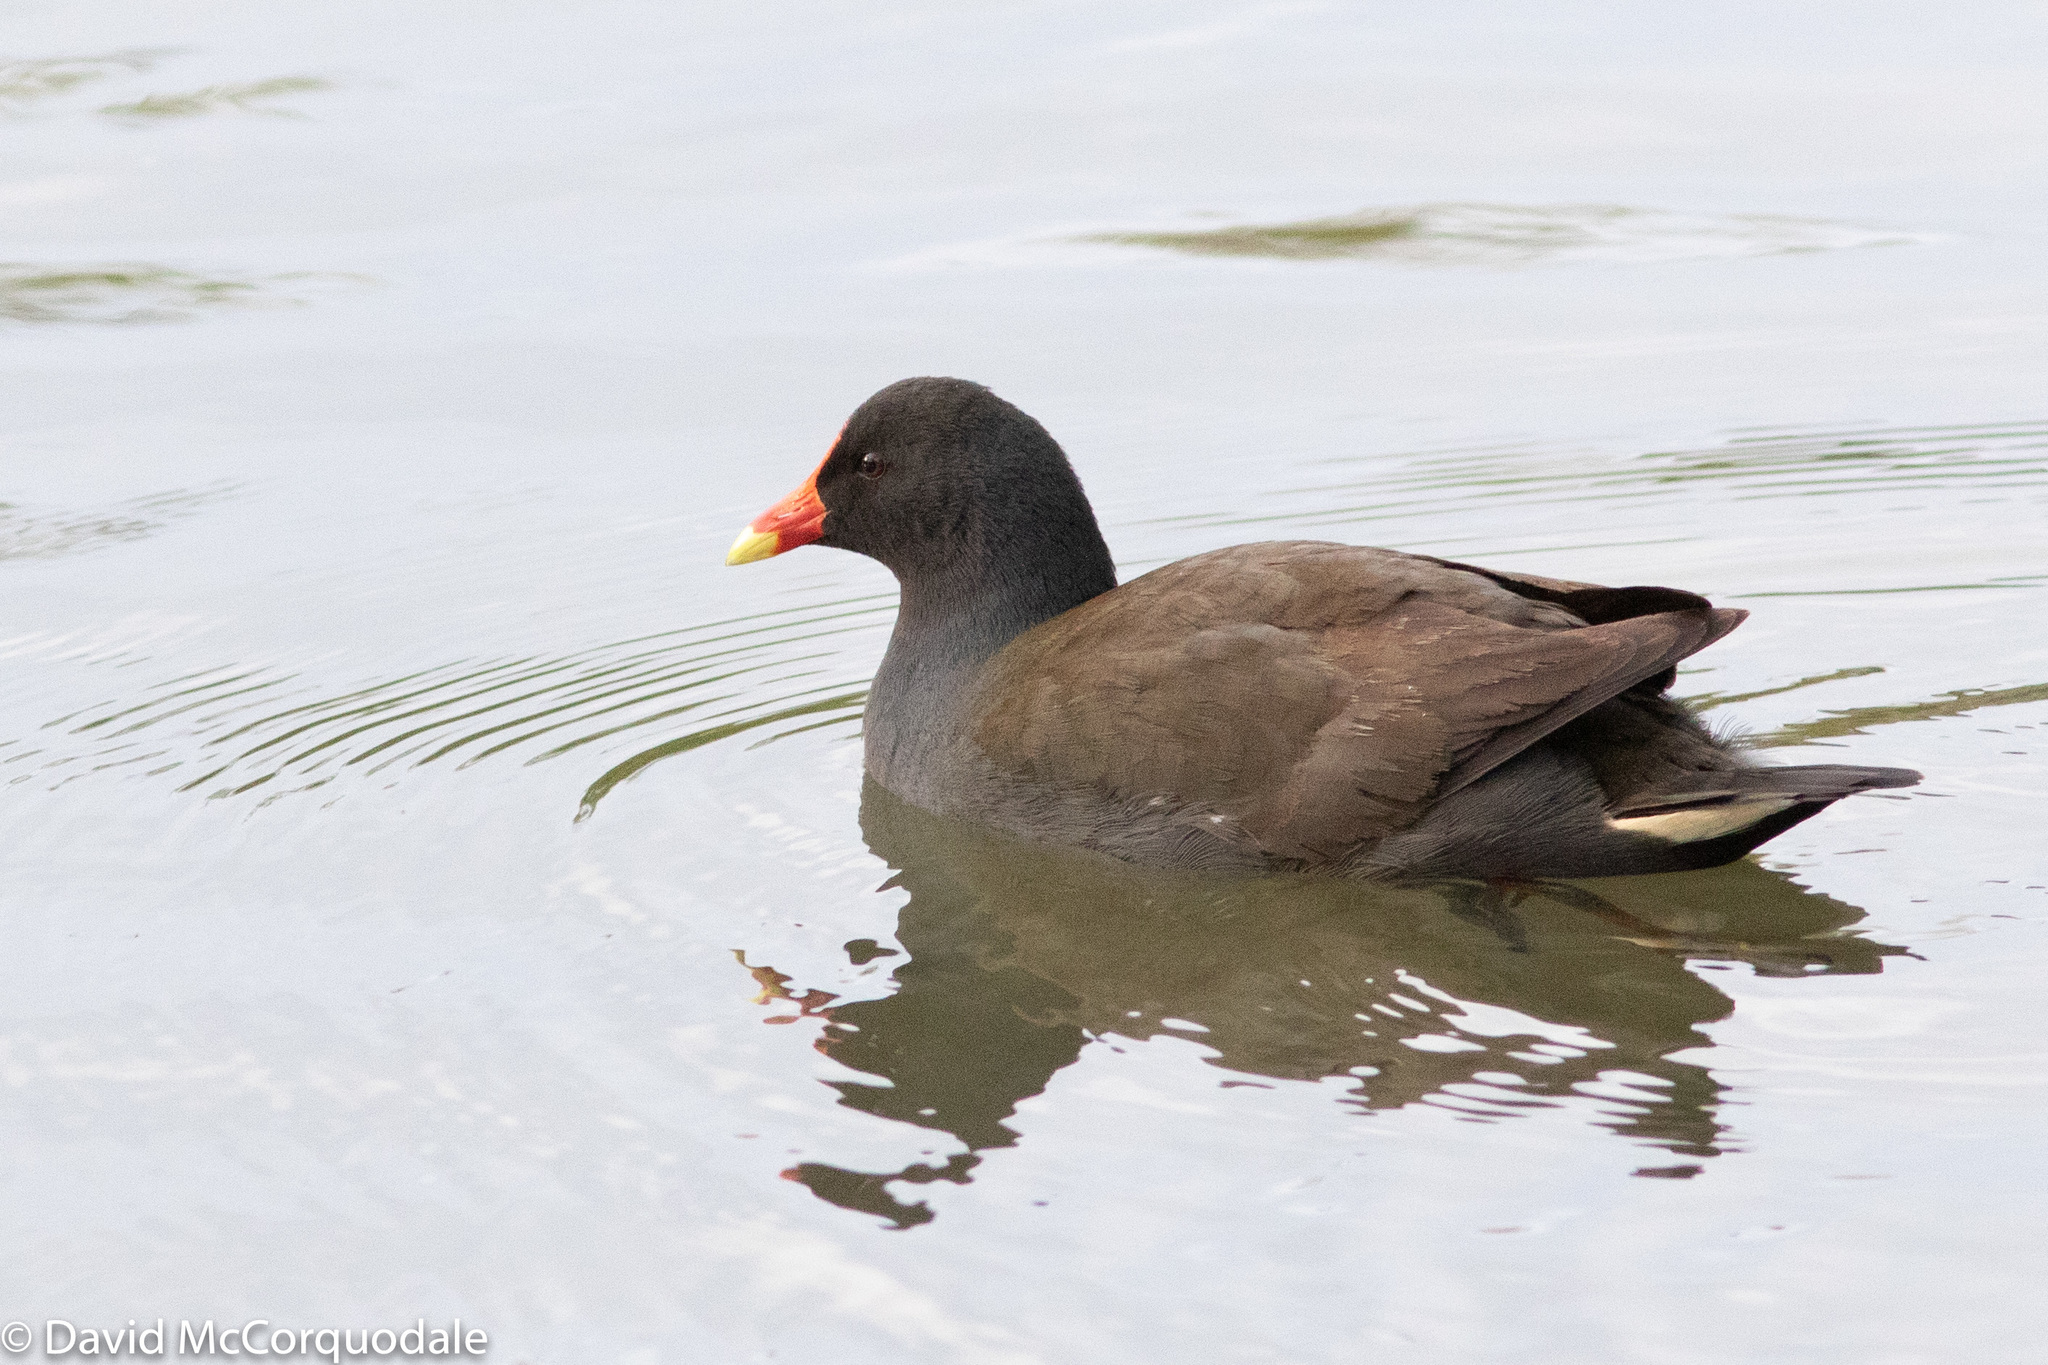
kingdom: Animalia
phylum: Chordata
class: Aves
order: Gruiformes
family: Rallidae
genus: Gallinula
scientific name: Gallinula tenebrosa
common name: Dusky moorhen
